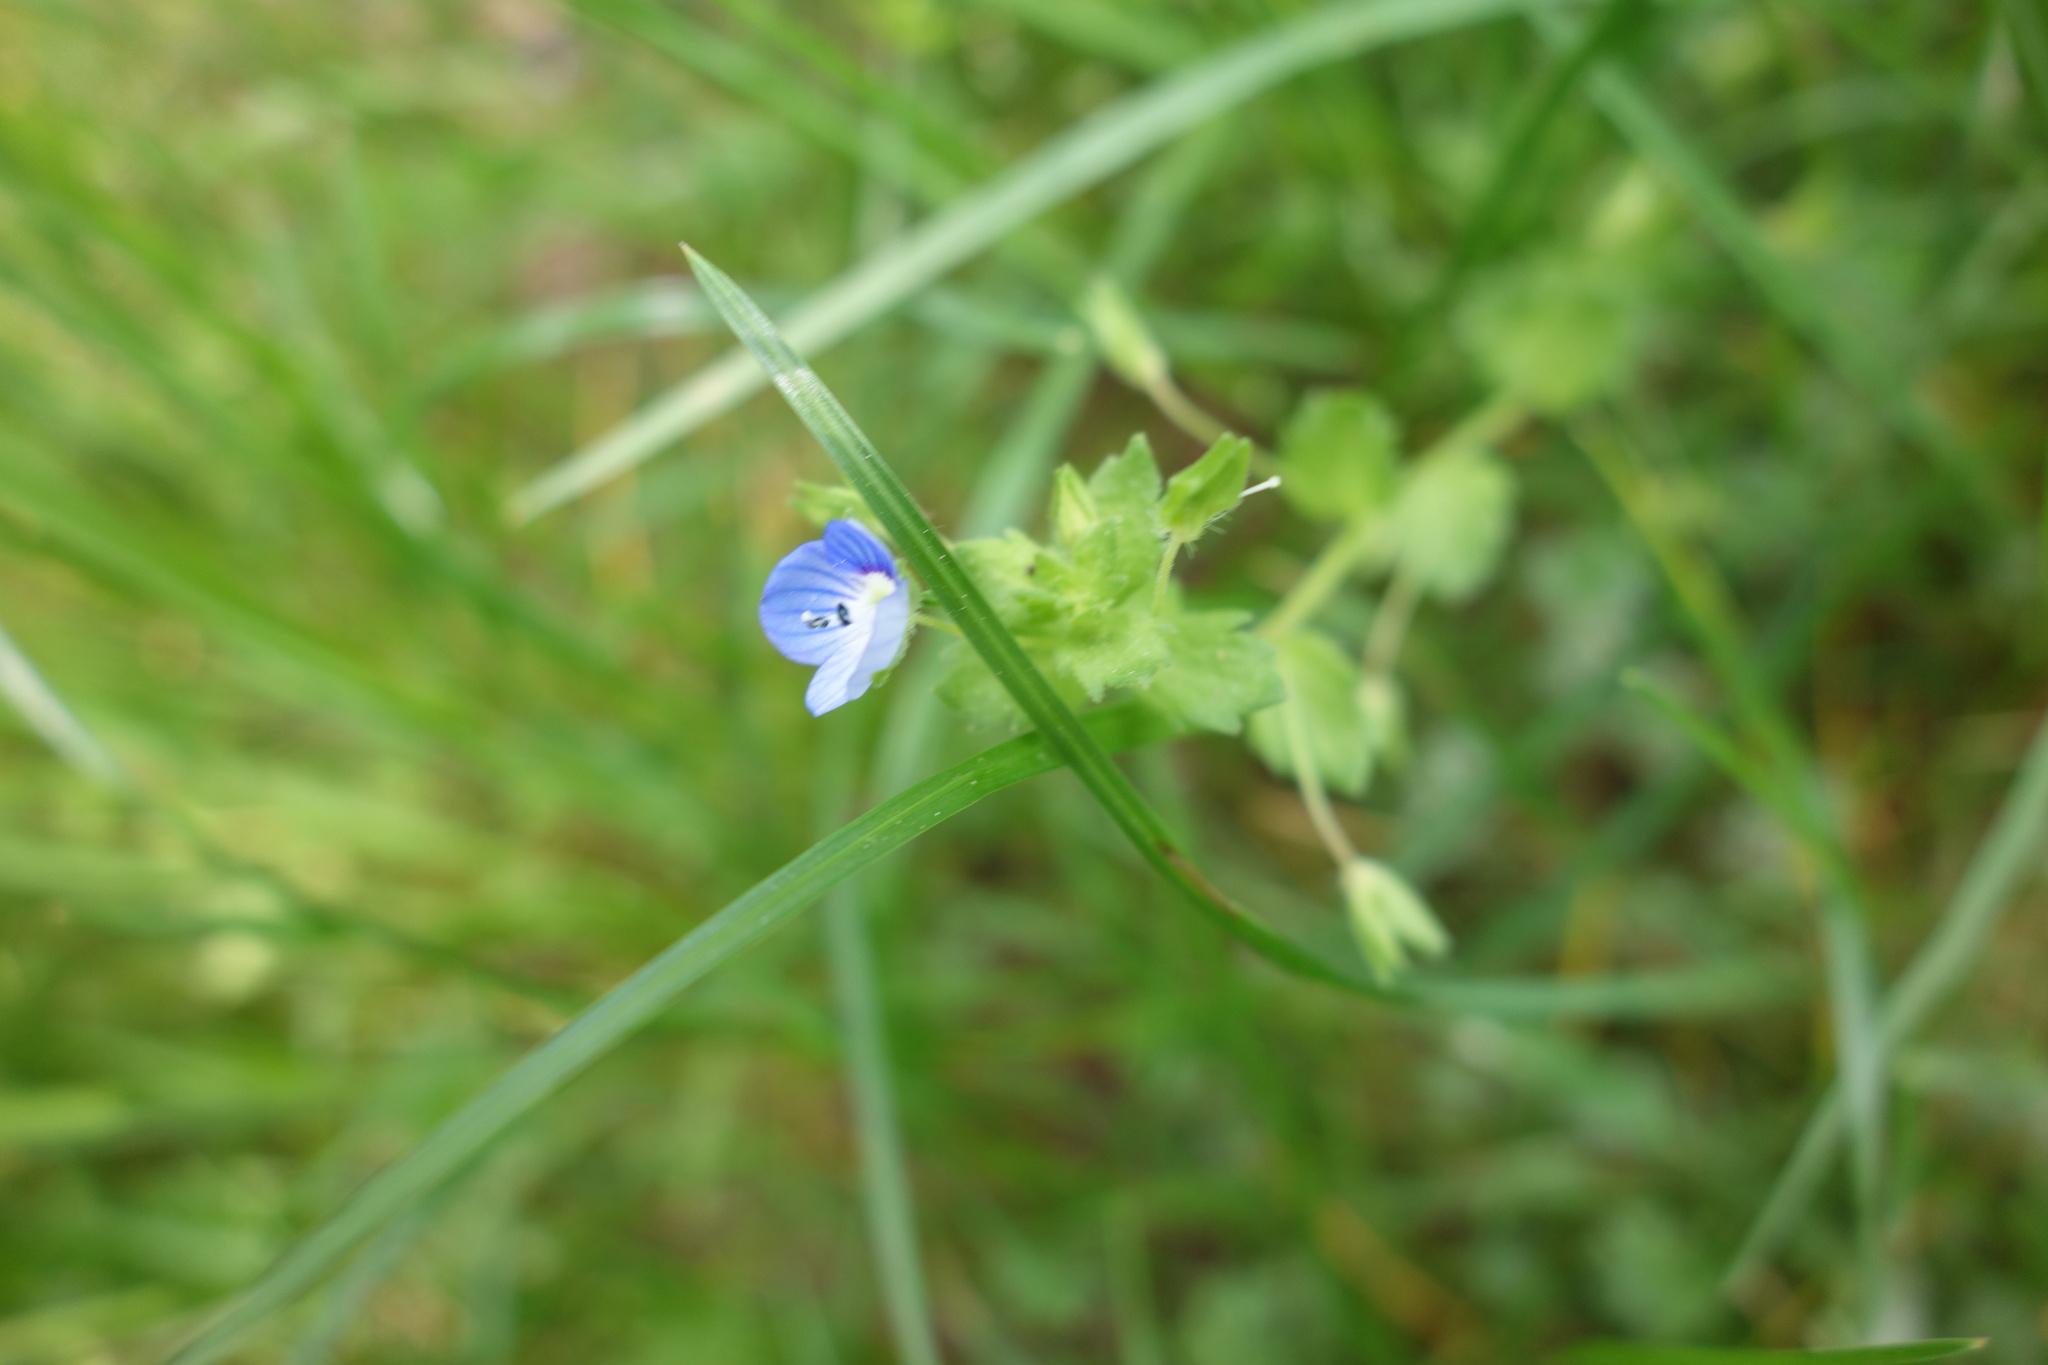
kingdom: Plantae
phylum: Tracheophyta
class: Magnoliopsida
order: Lamiales
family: Plantaginaceae
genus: Veronica
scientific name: Veronica persica
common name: Common field-speedwell
